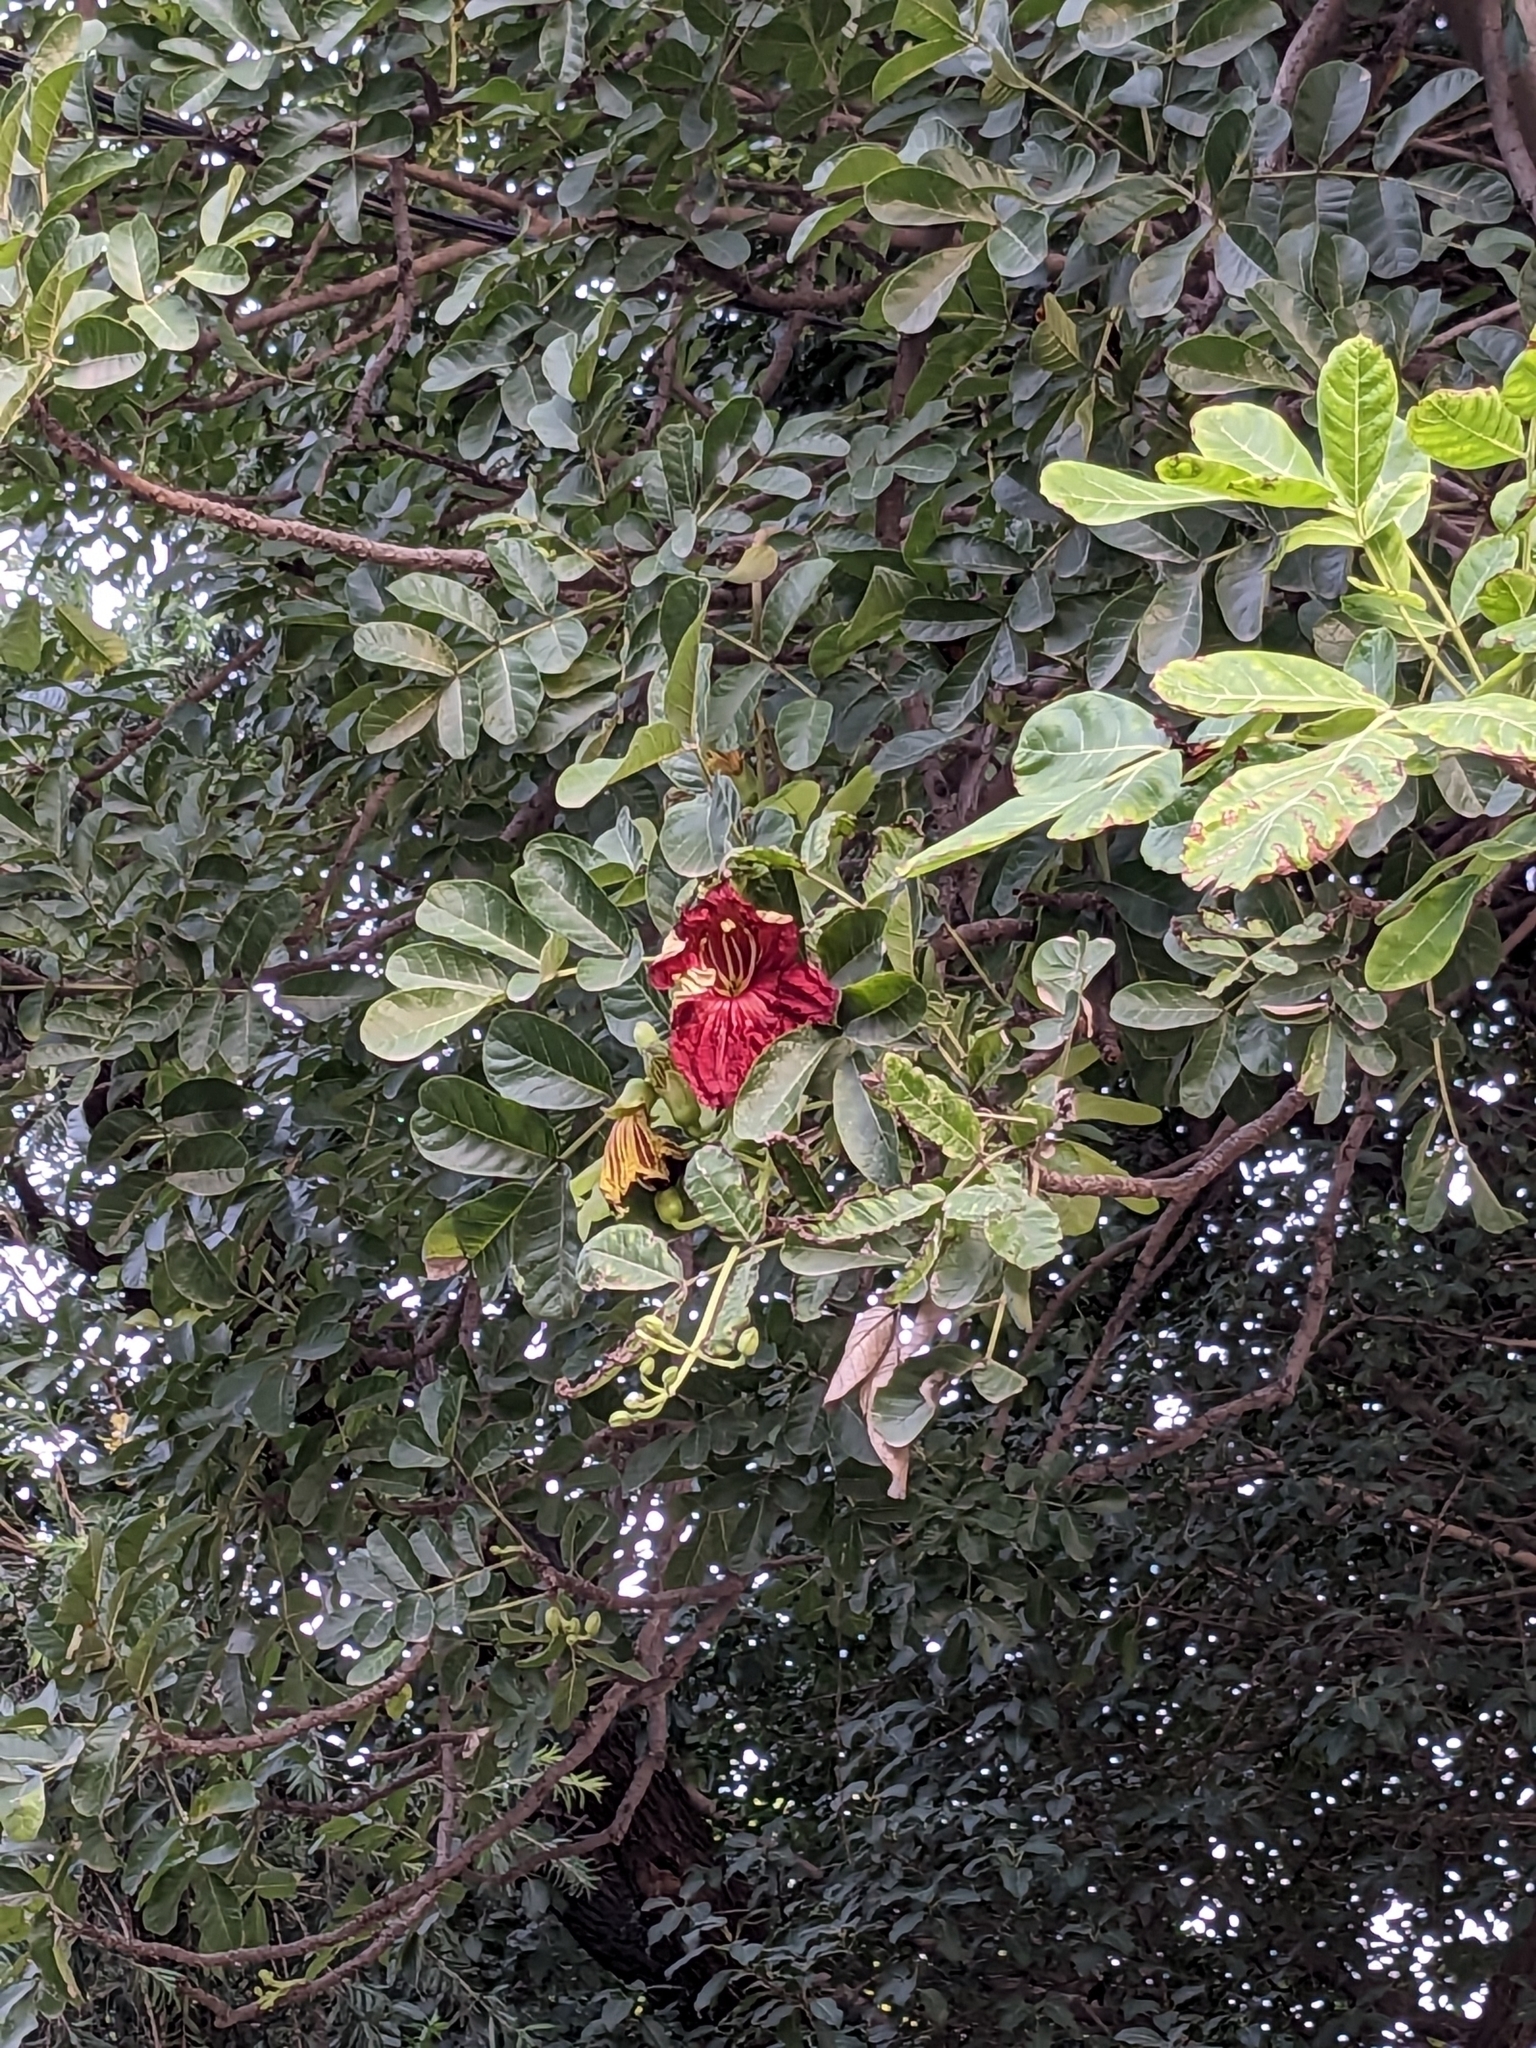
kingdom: Plantae
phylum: Tracheophyta
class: Magnoliopsida
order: Lamiales
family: Bignoniaceae
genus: Kigelia
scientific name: Kigelia africana
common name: Sausage tree
